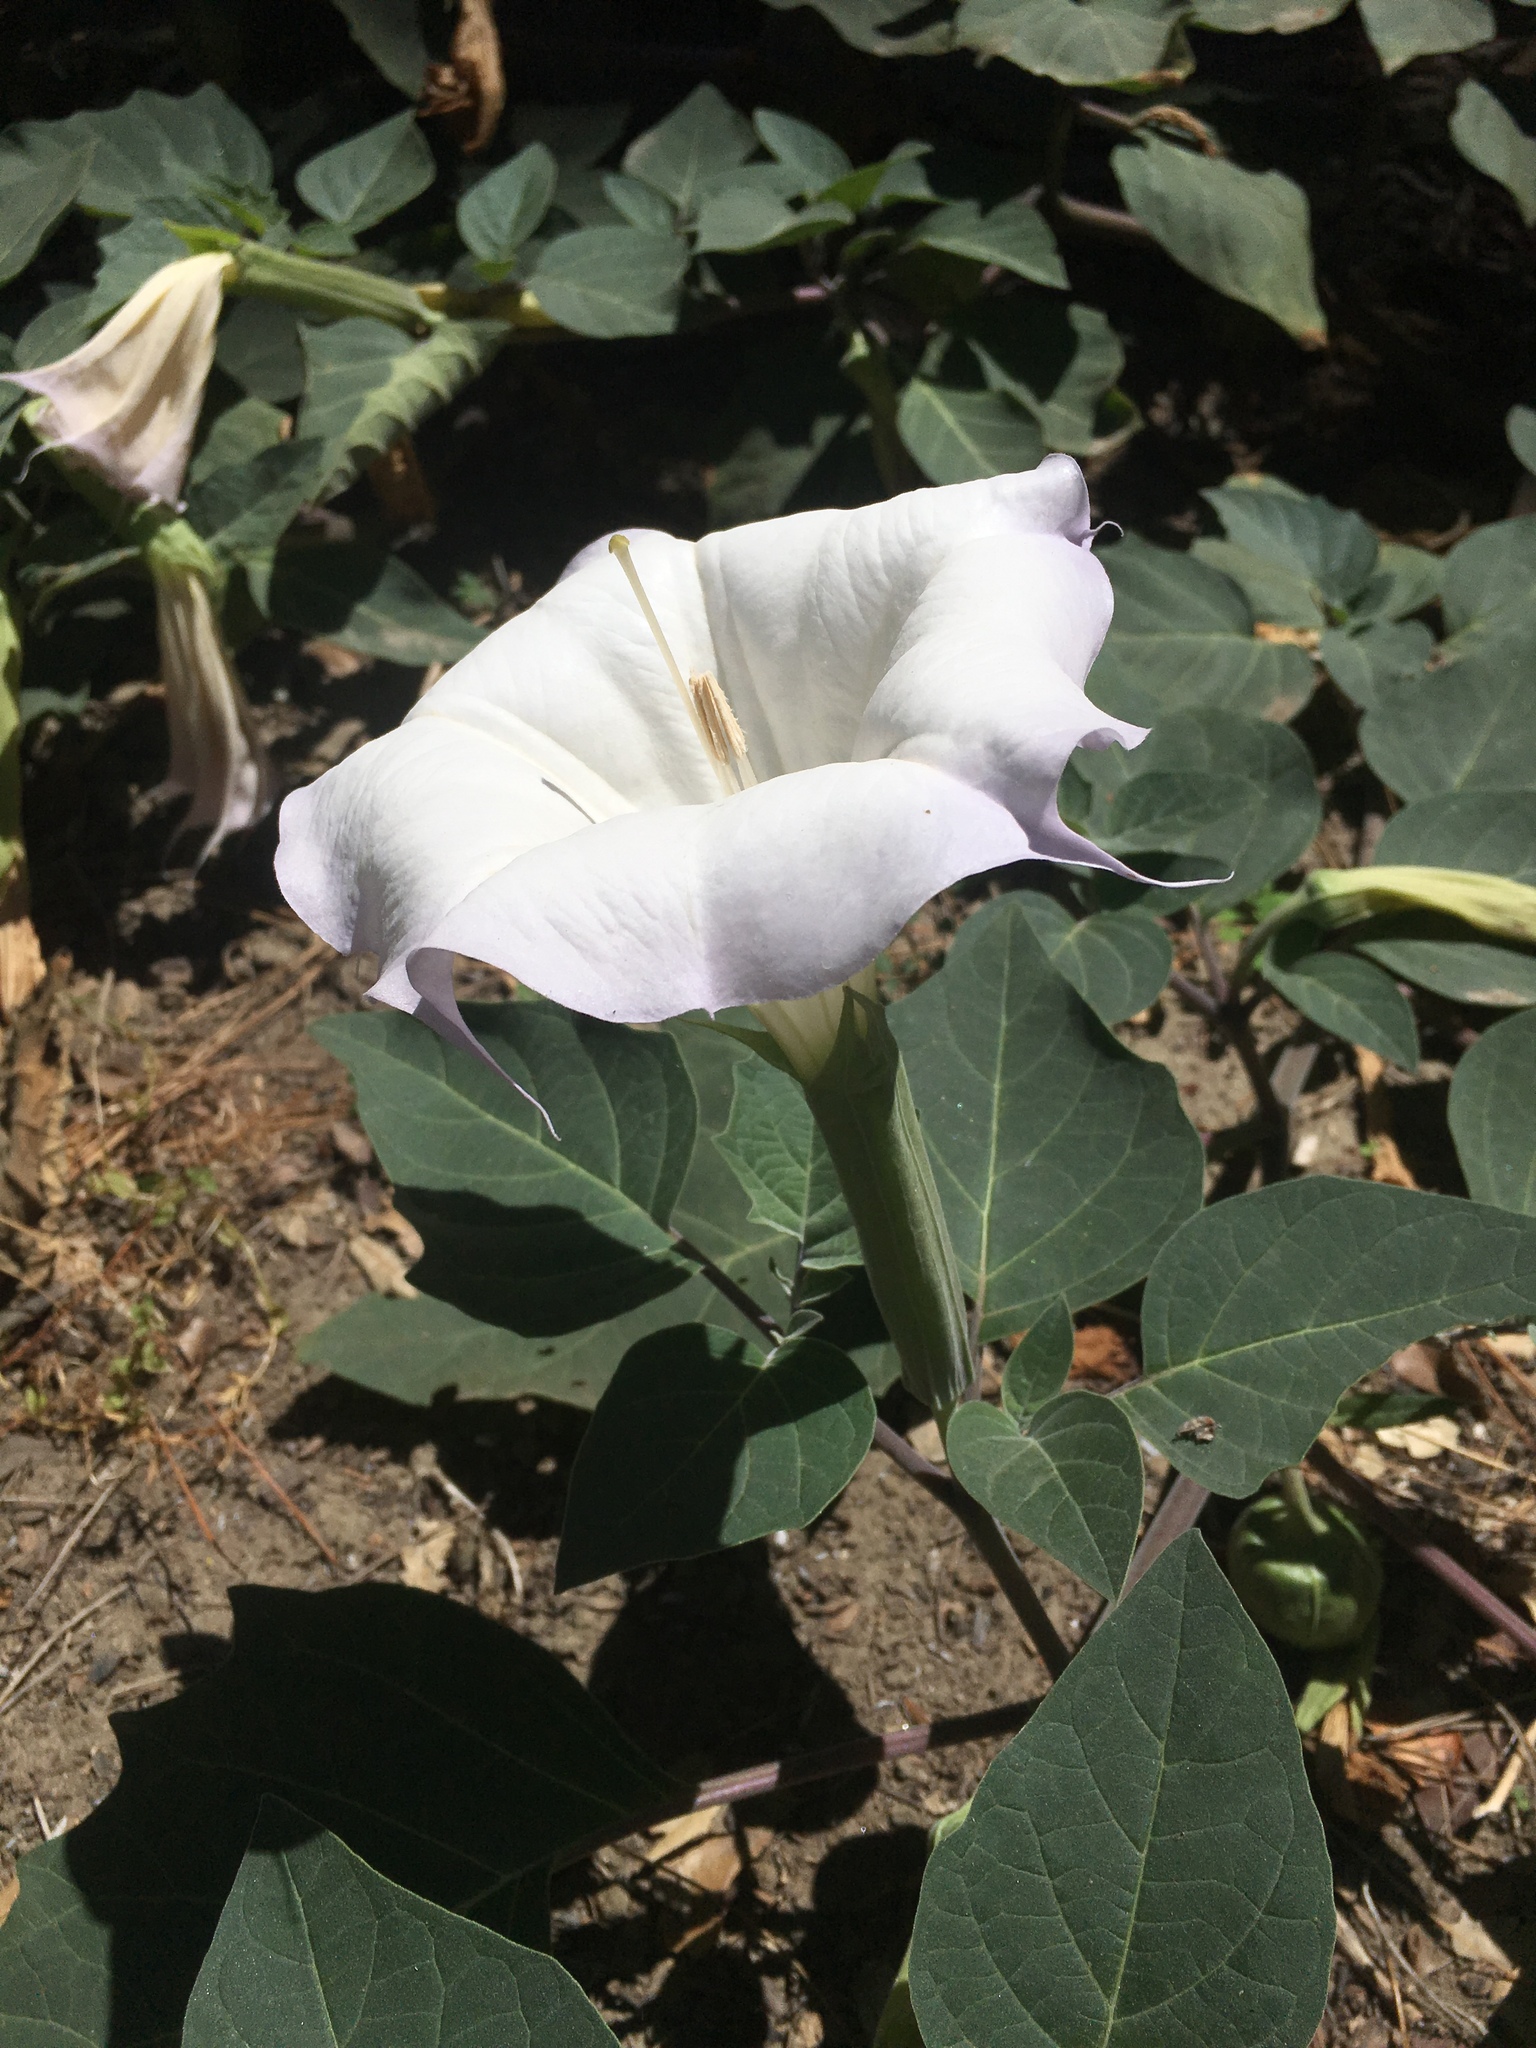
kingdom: Plantae
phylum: Tracheophyta
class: Magnoliopsida
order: Solanales
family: Solanaceae
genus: Datura
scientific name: Datura wrightii
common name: Sacred thorn-apple
